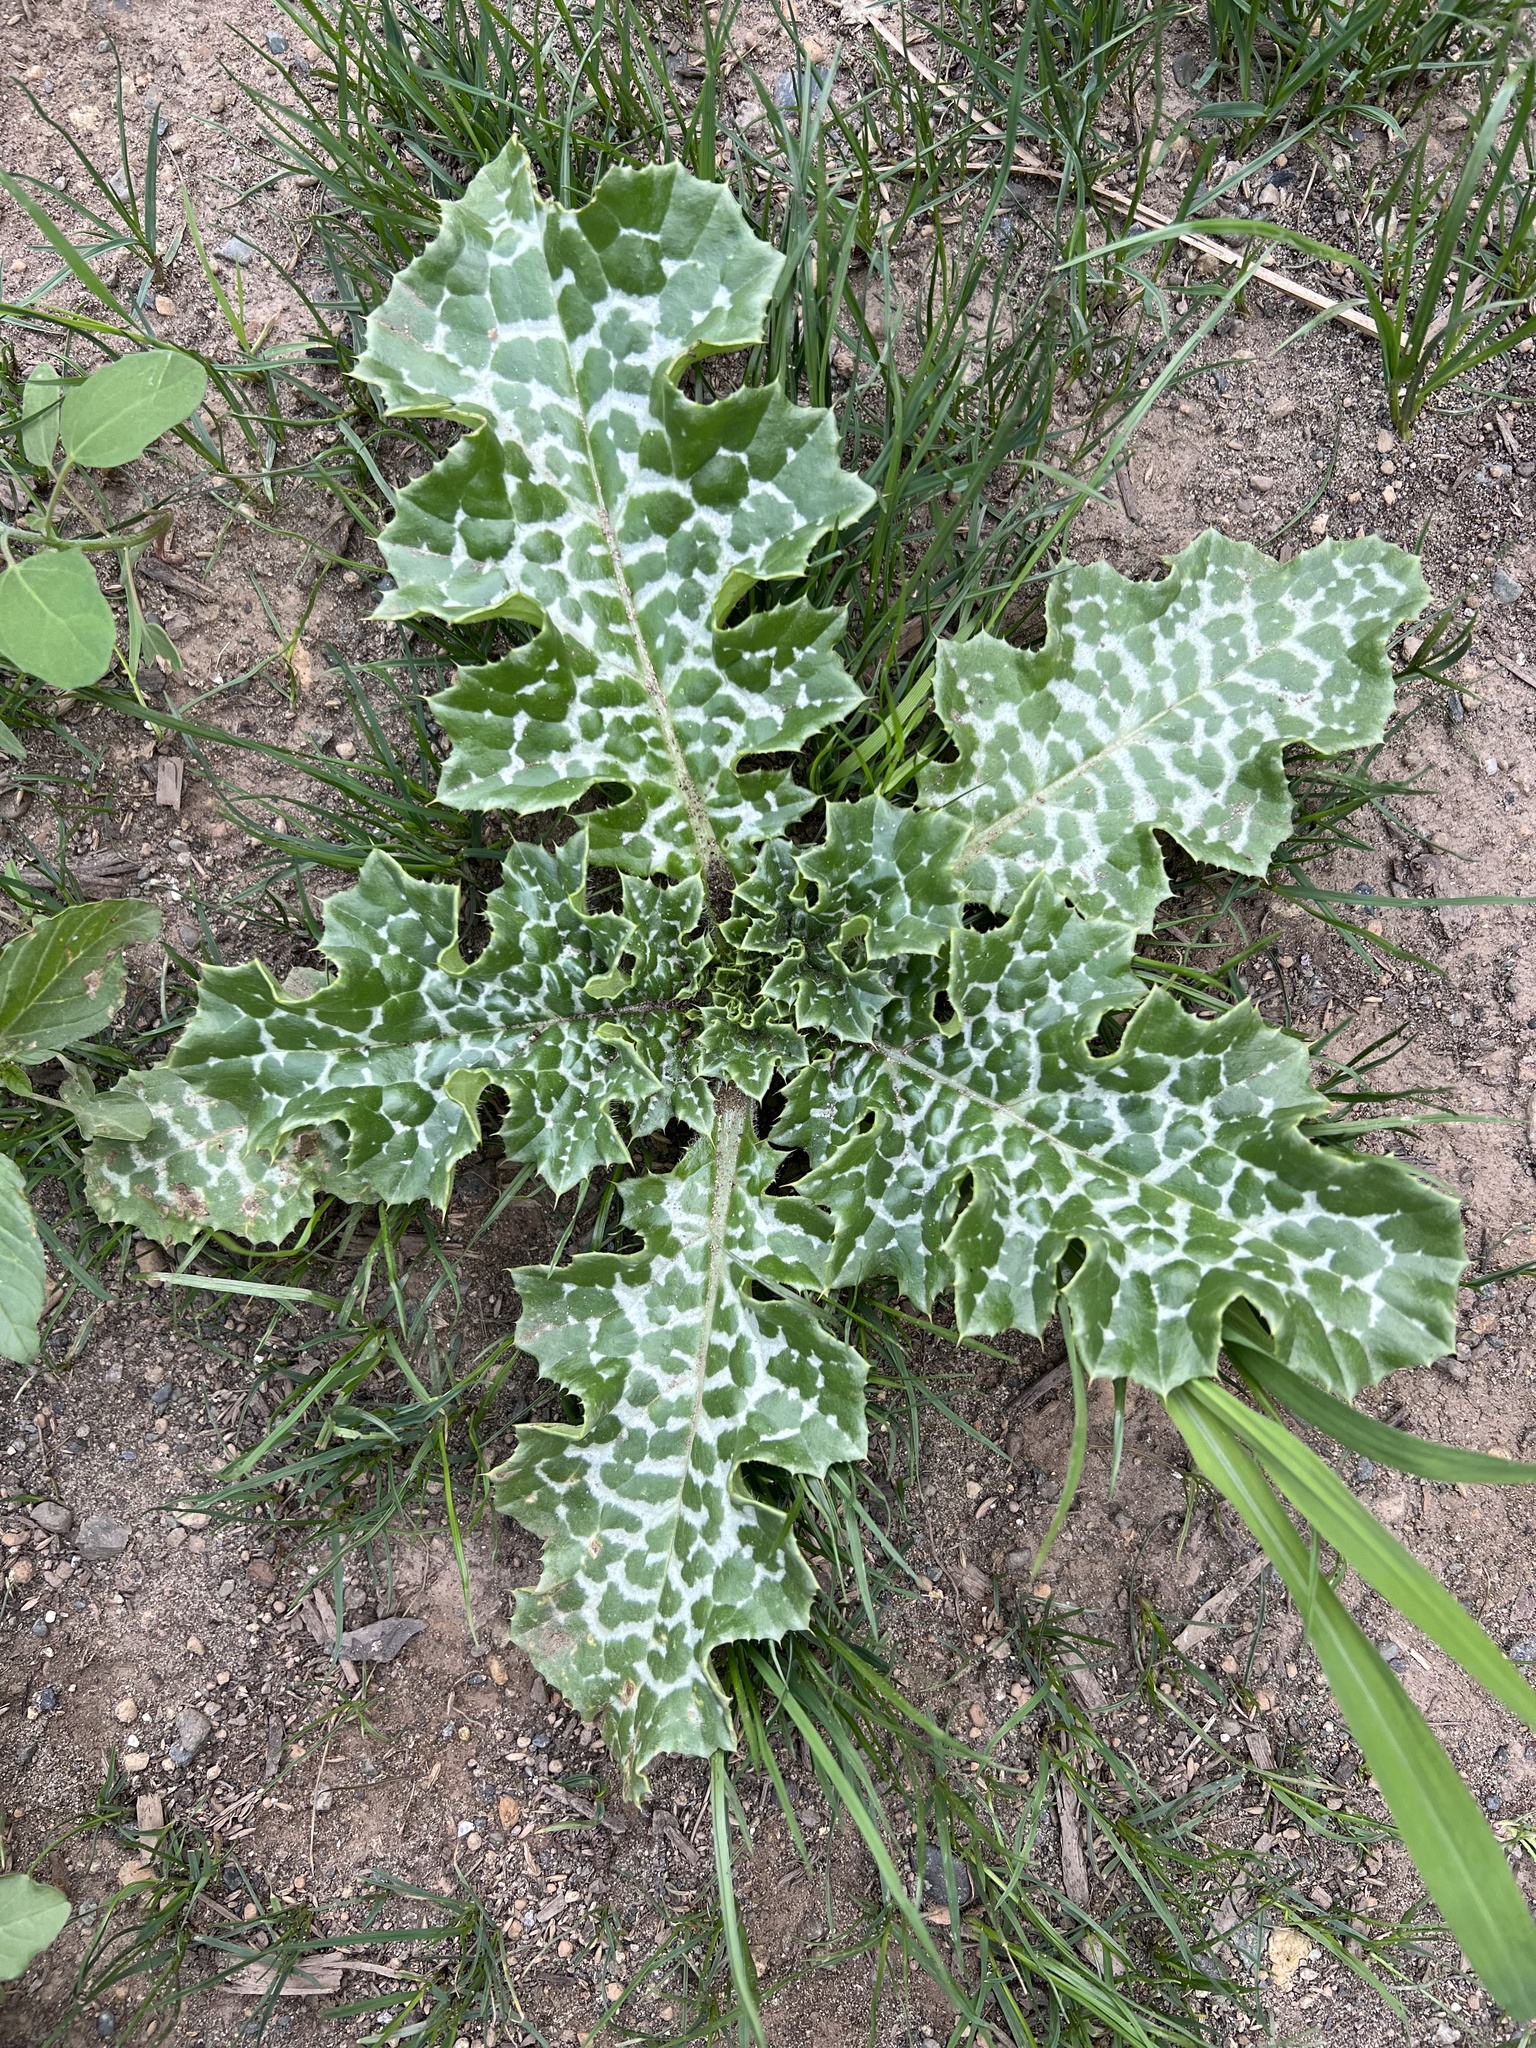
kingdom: Plantae
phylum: Tracheophyta
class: Magnoliopsida
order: Asterales
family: Asteraceae
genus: Silybum
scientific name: Silybum marianum
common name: Milk thistle
